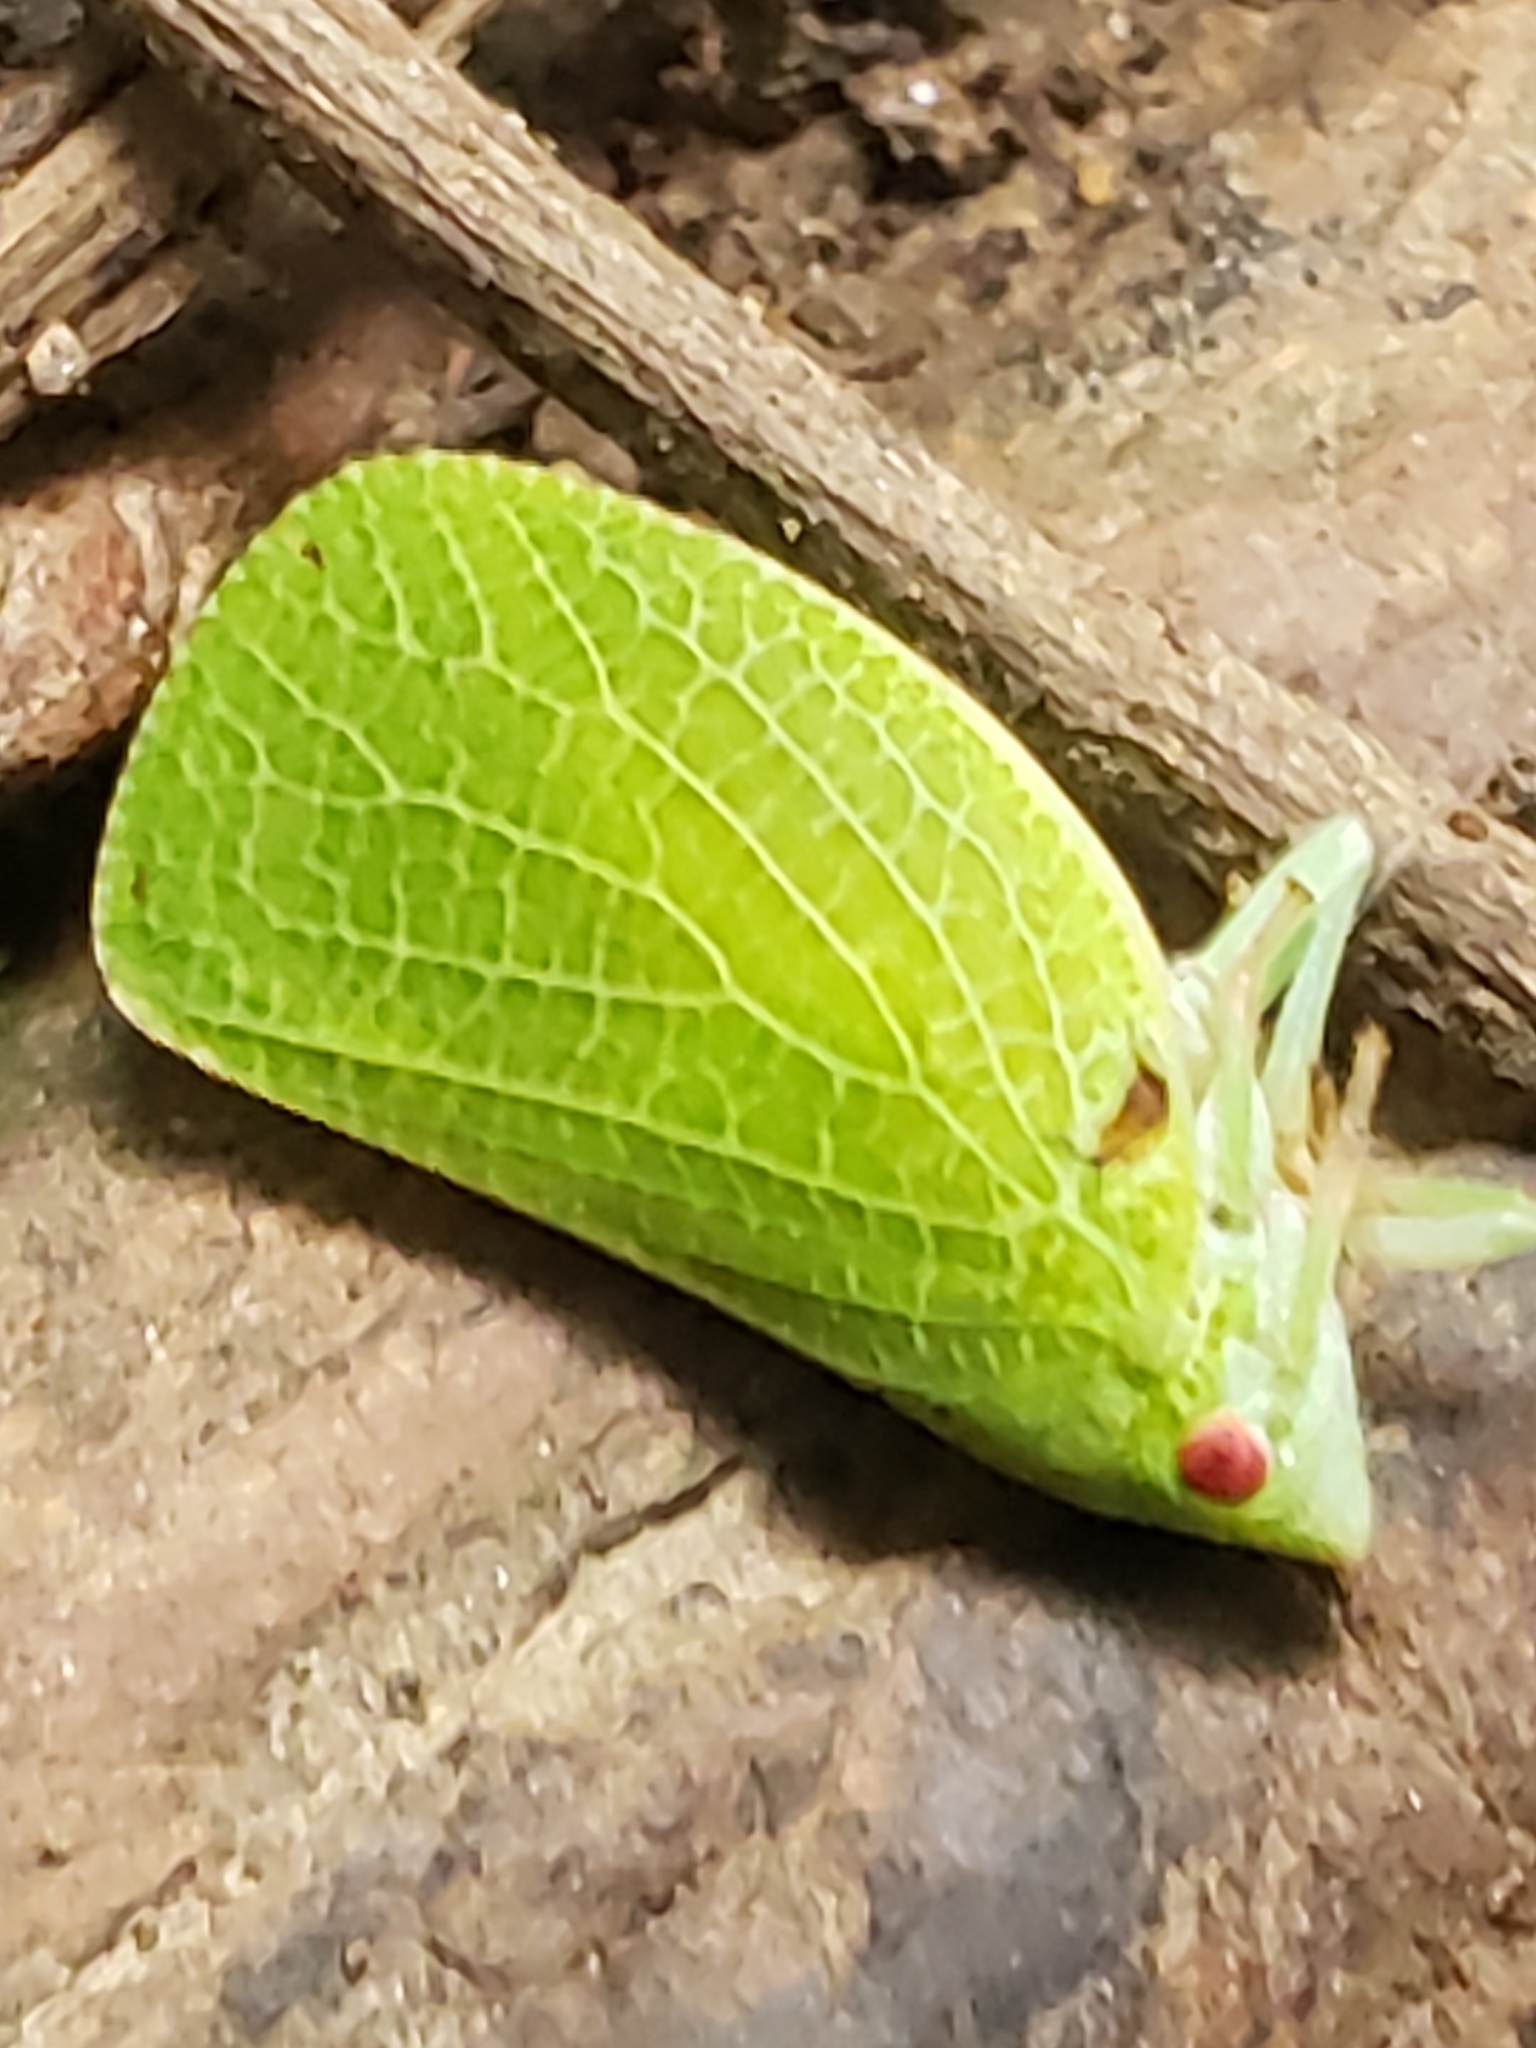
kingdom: Animalia
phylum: Arthropoda
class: Insecta
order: Hemiptera
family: Acanaloniidae
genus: Acanalonia
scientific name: Acanalonia conica
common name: Green cone-headed planthopper
